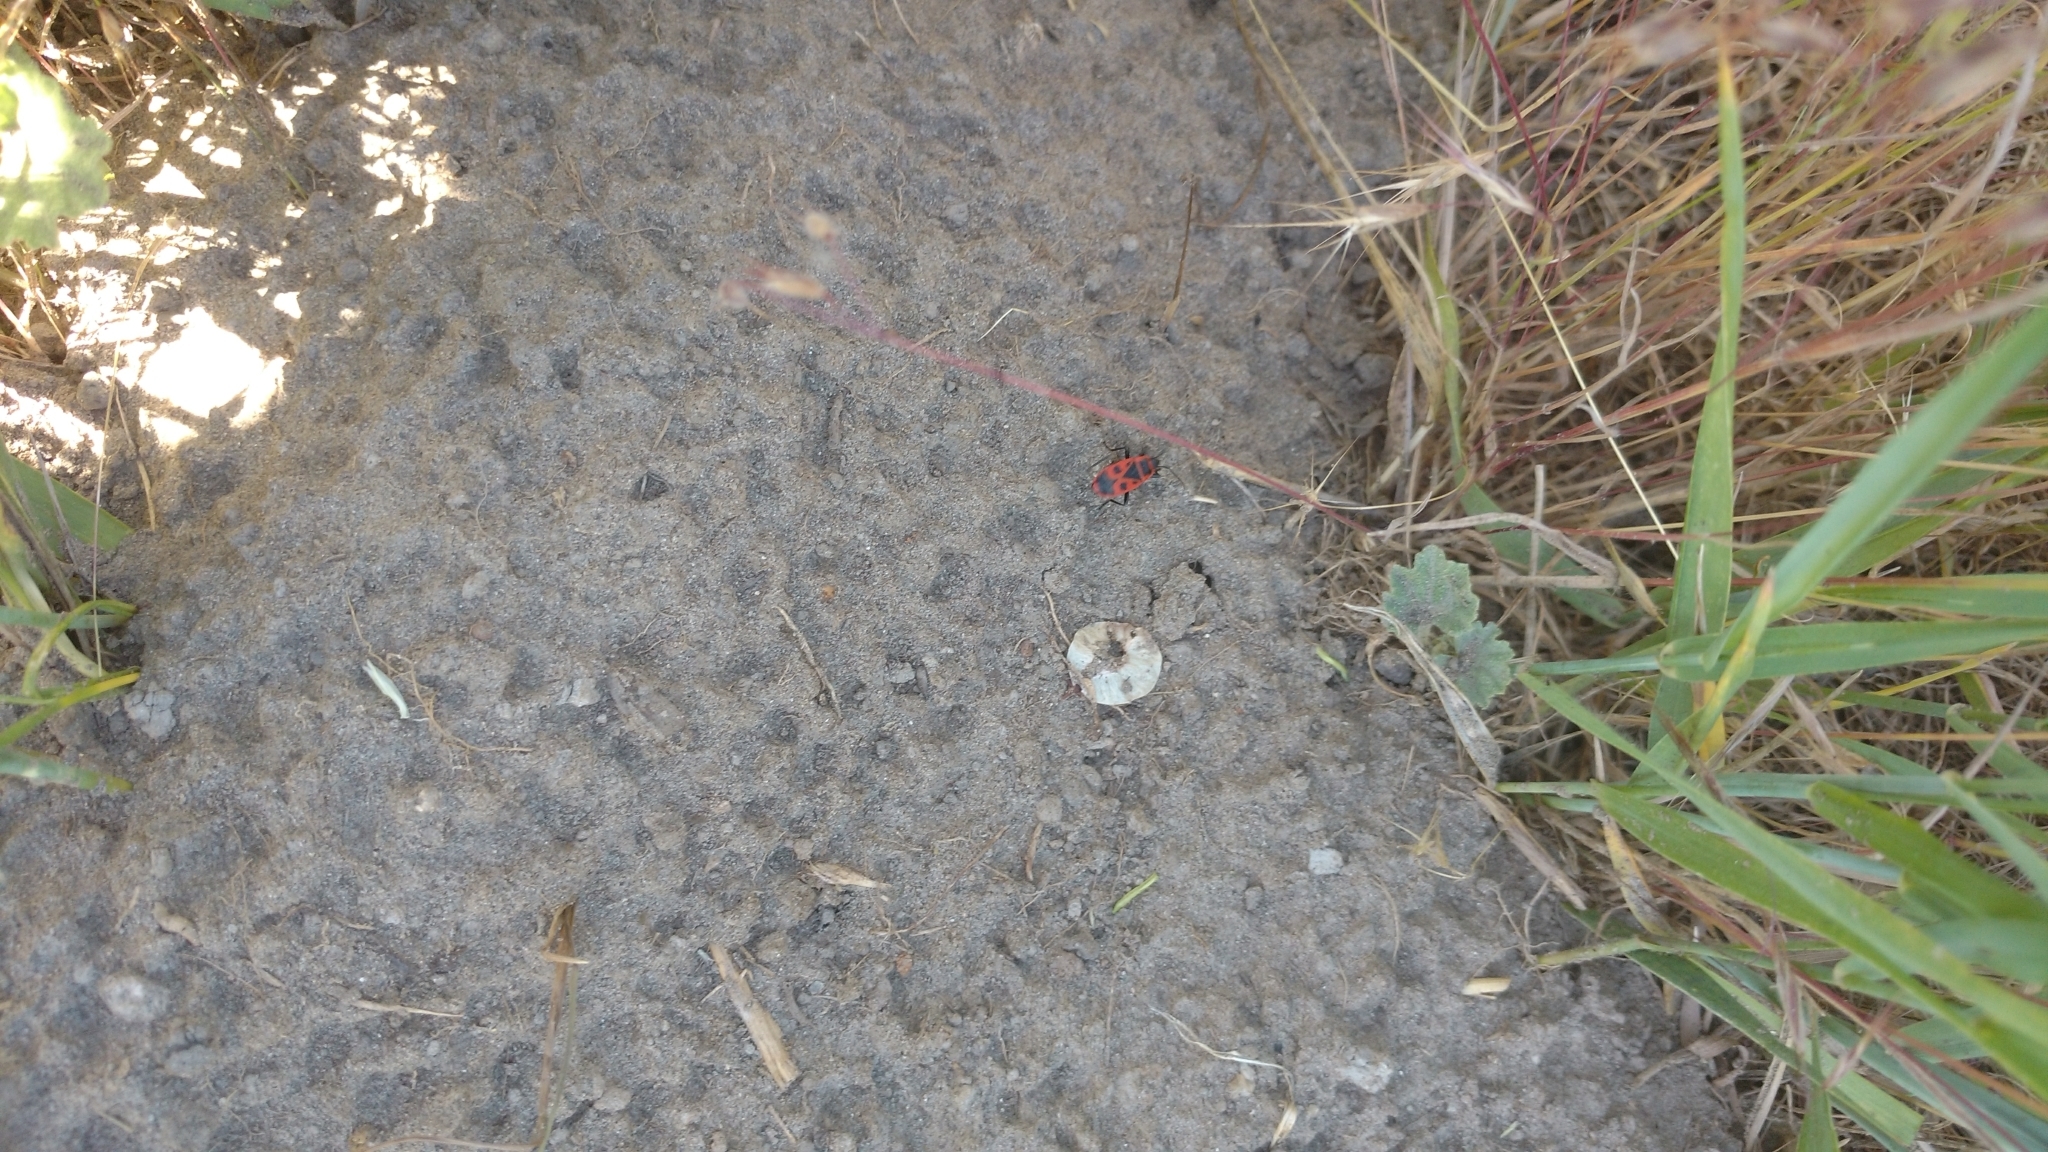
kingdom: Animalia
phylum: Arthropoda
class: Insecta
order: Hemiptera
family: Pyrrhocoridae
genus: Pyrrhocoris
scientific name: Pyrrhocoris apterus
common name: Firebug
